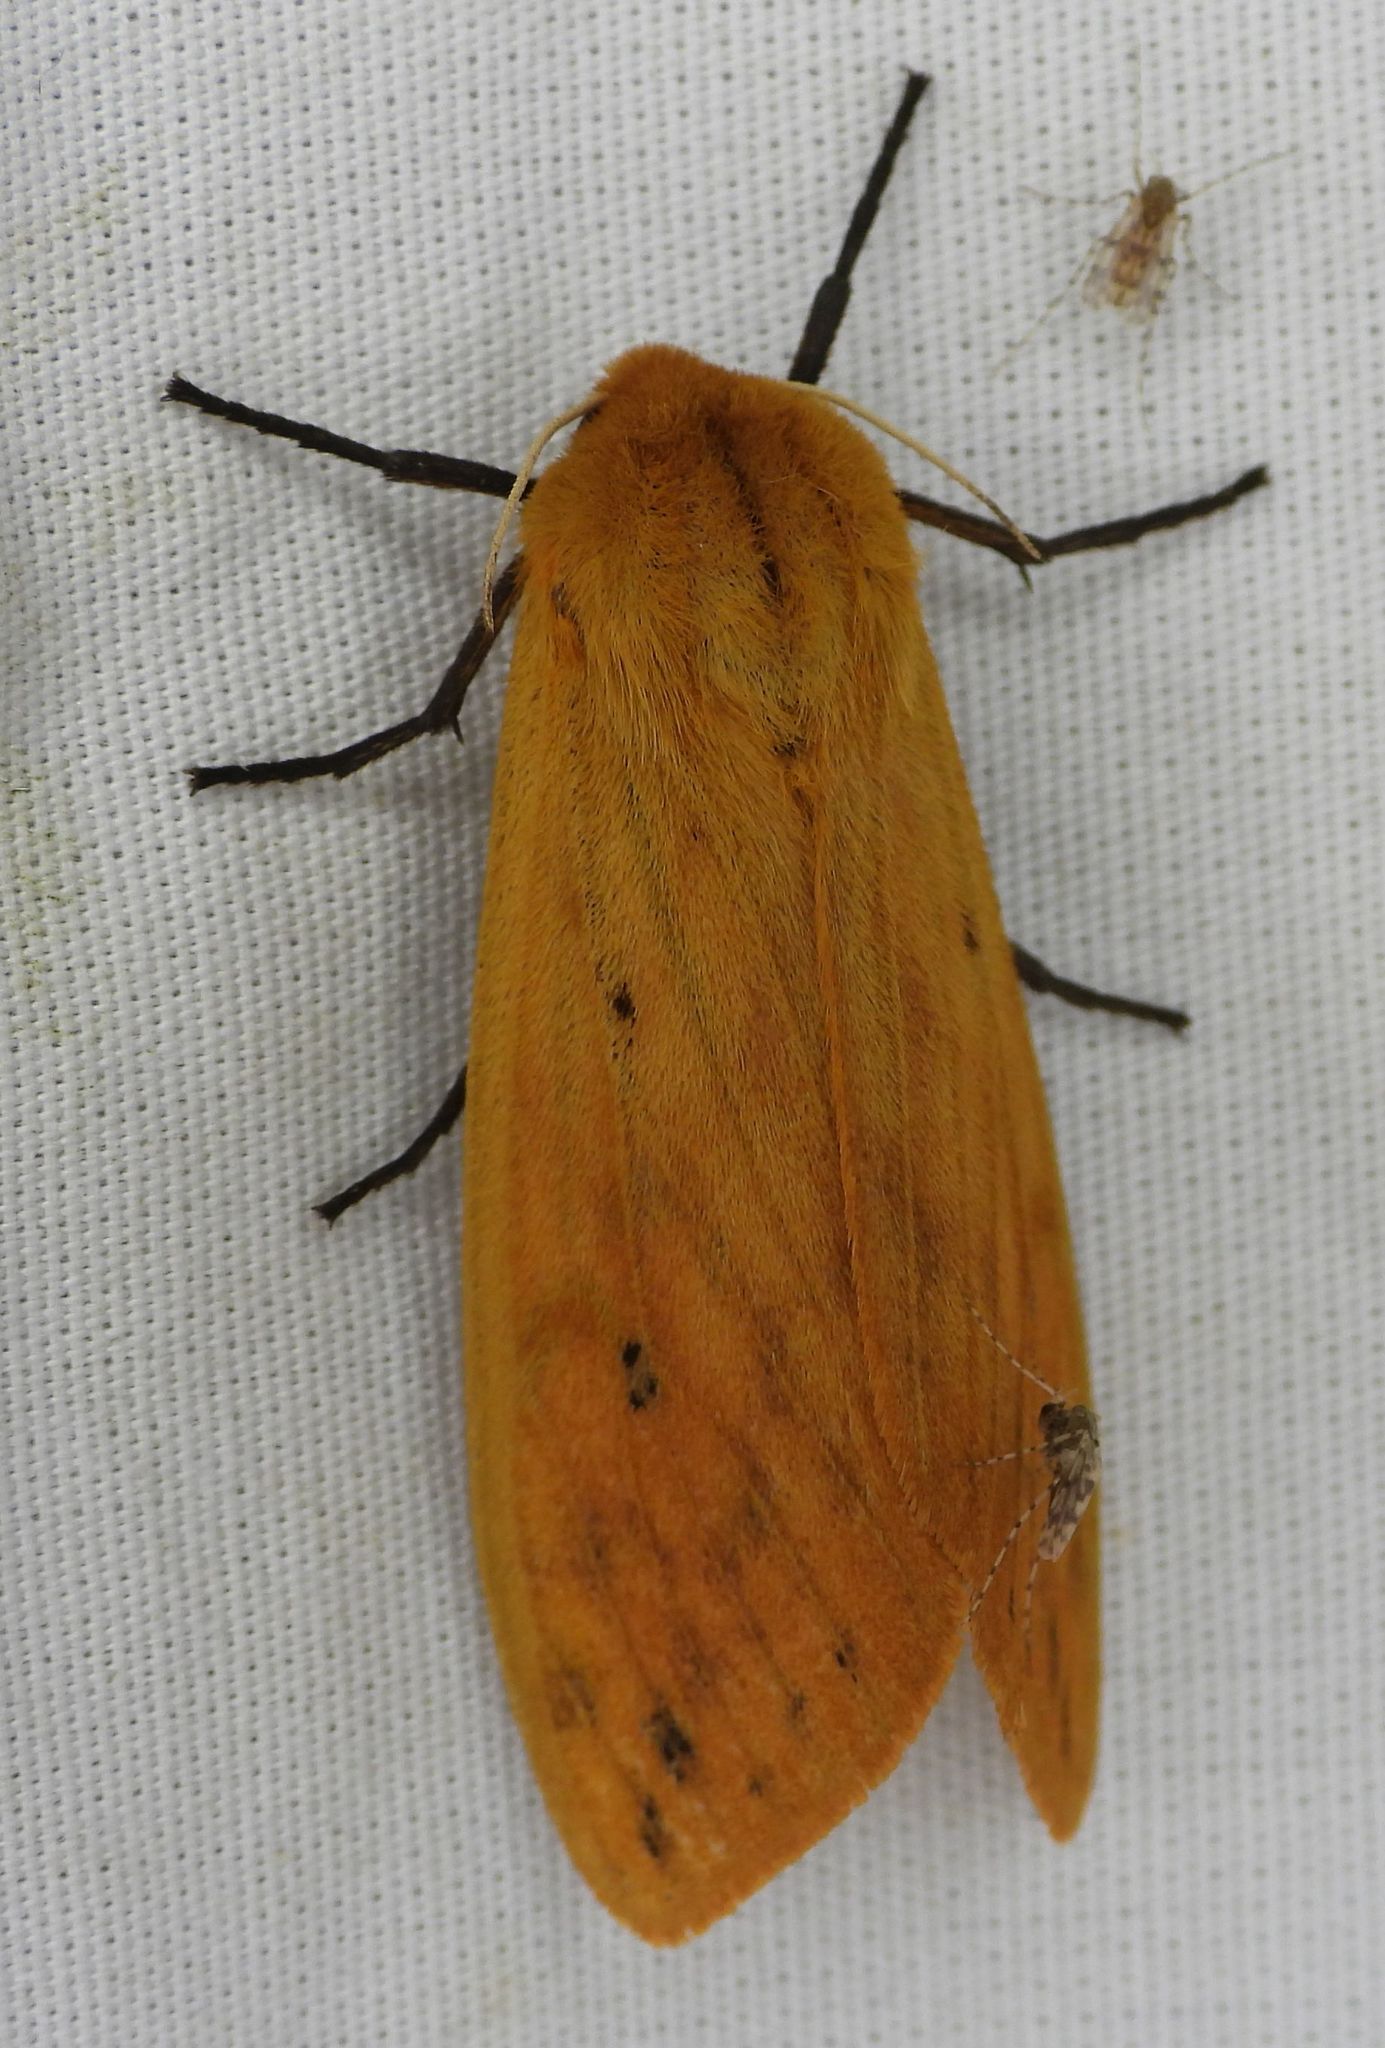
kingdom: Animalia
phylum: Arthropoda
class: Insecta
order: Lepidoptera
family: Erebidae
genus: Pyrrharctia
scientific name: Pyrrharctia isabella
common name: Isabella tiger moth
